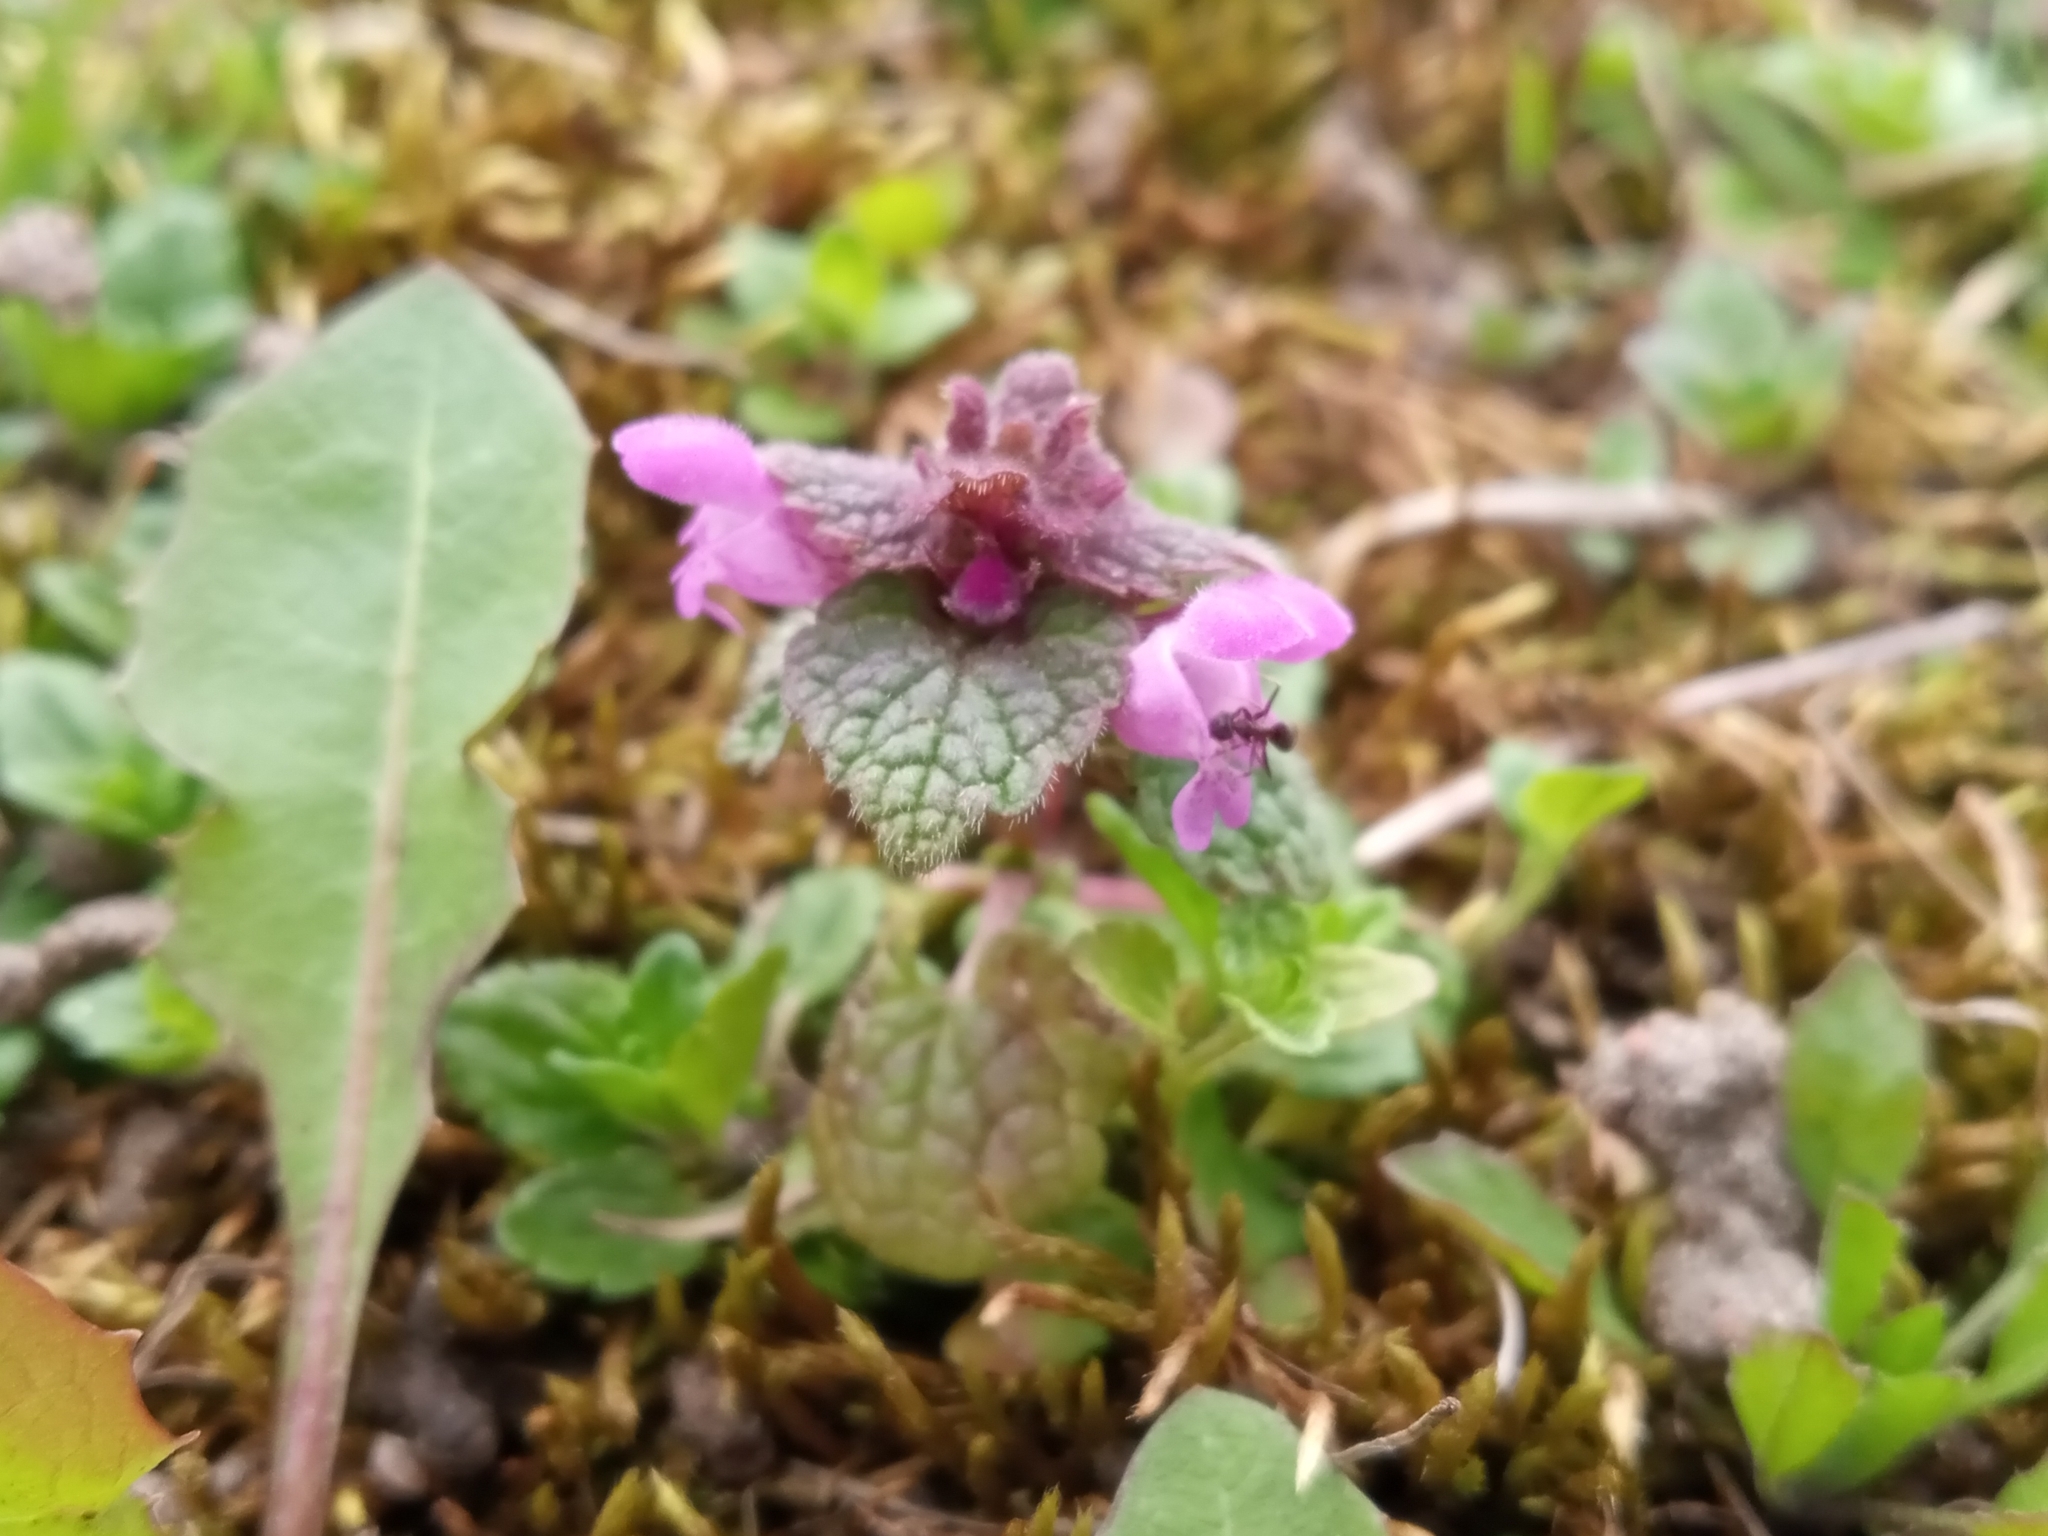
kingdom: Plantae
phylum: Tracheophyta
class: Magnoliopsida
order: Lamiales
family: Lamiaceae
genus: Lamium
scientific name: Lamium purpureum
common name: Red dead-nettle
